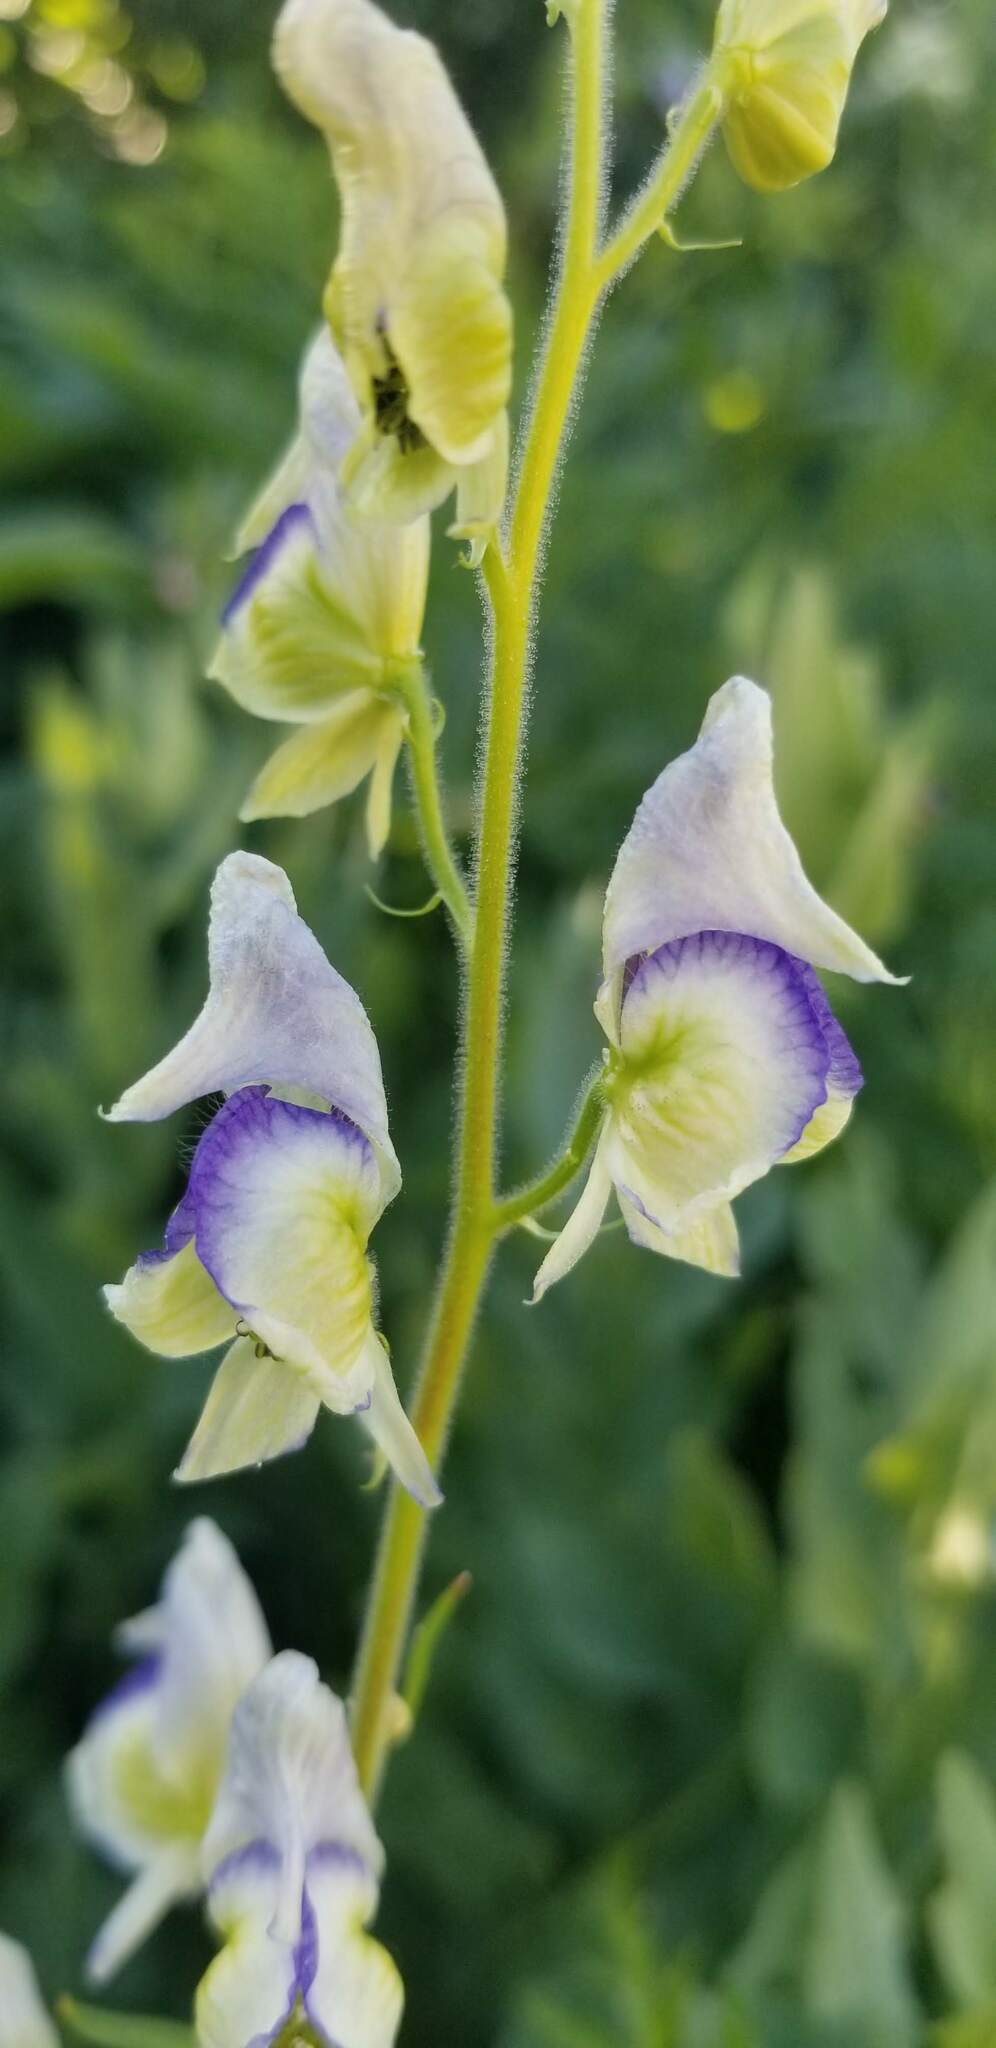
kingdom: Plantae
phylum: Tracheophyta
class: Magnoliopsida
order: Ranunculales
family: Ranunculaceae
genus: Aconitum
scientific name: Aconitum columbianum
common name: Columbia aconite
